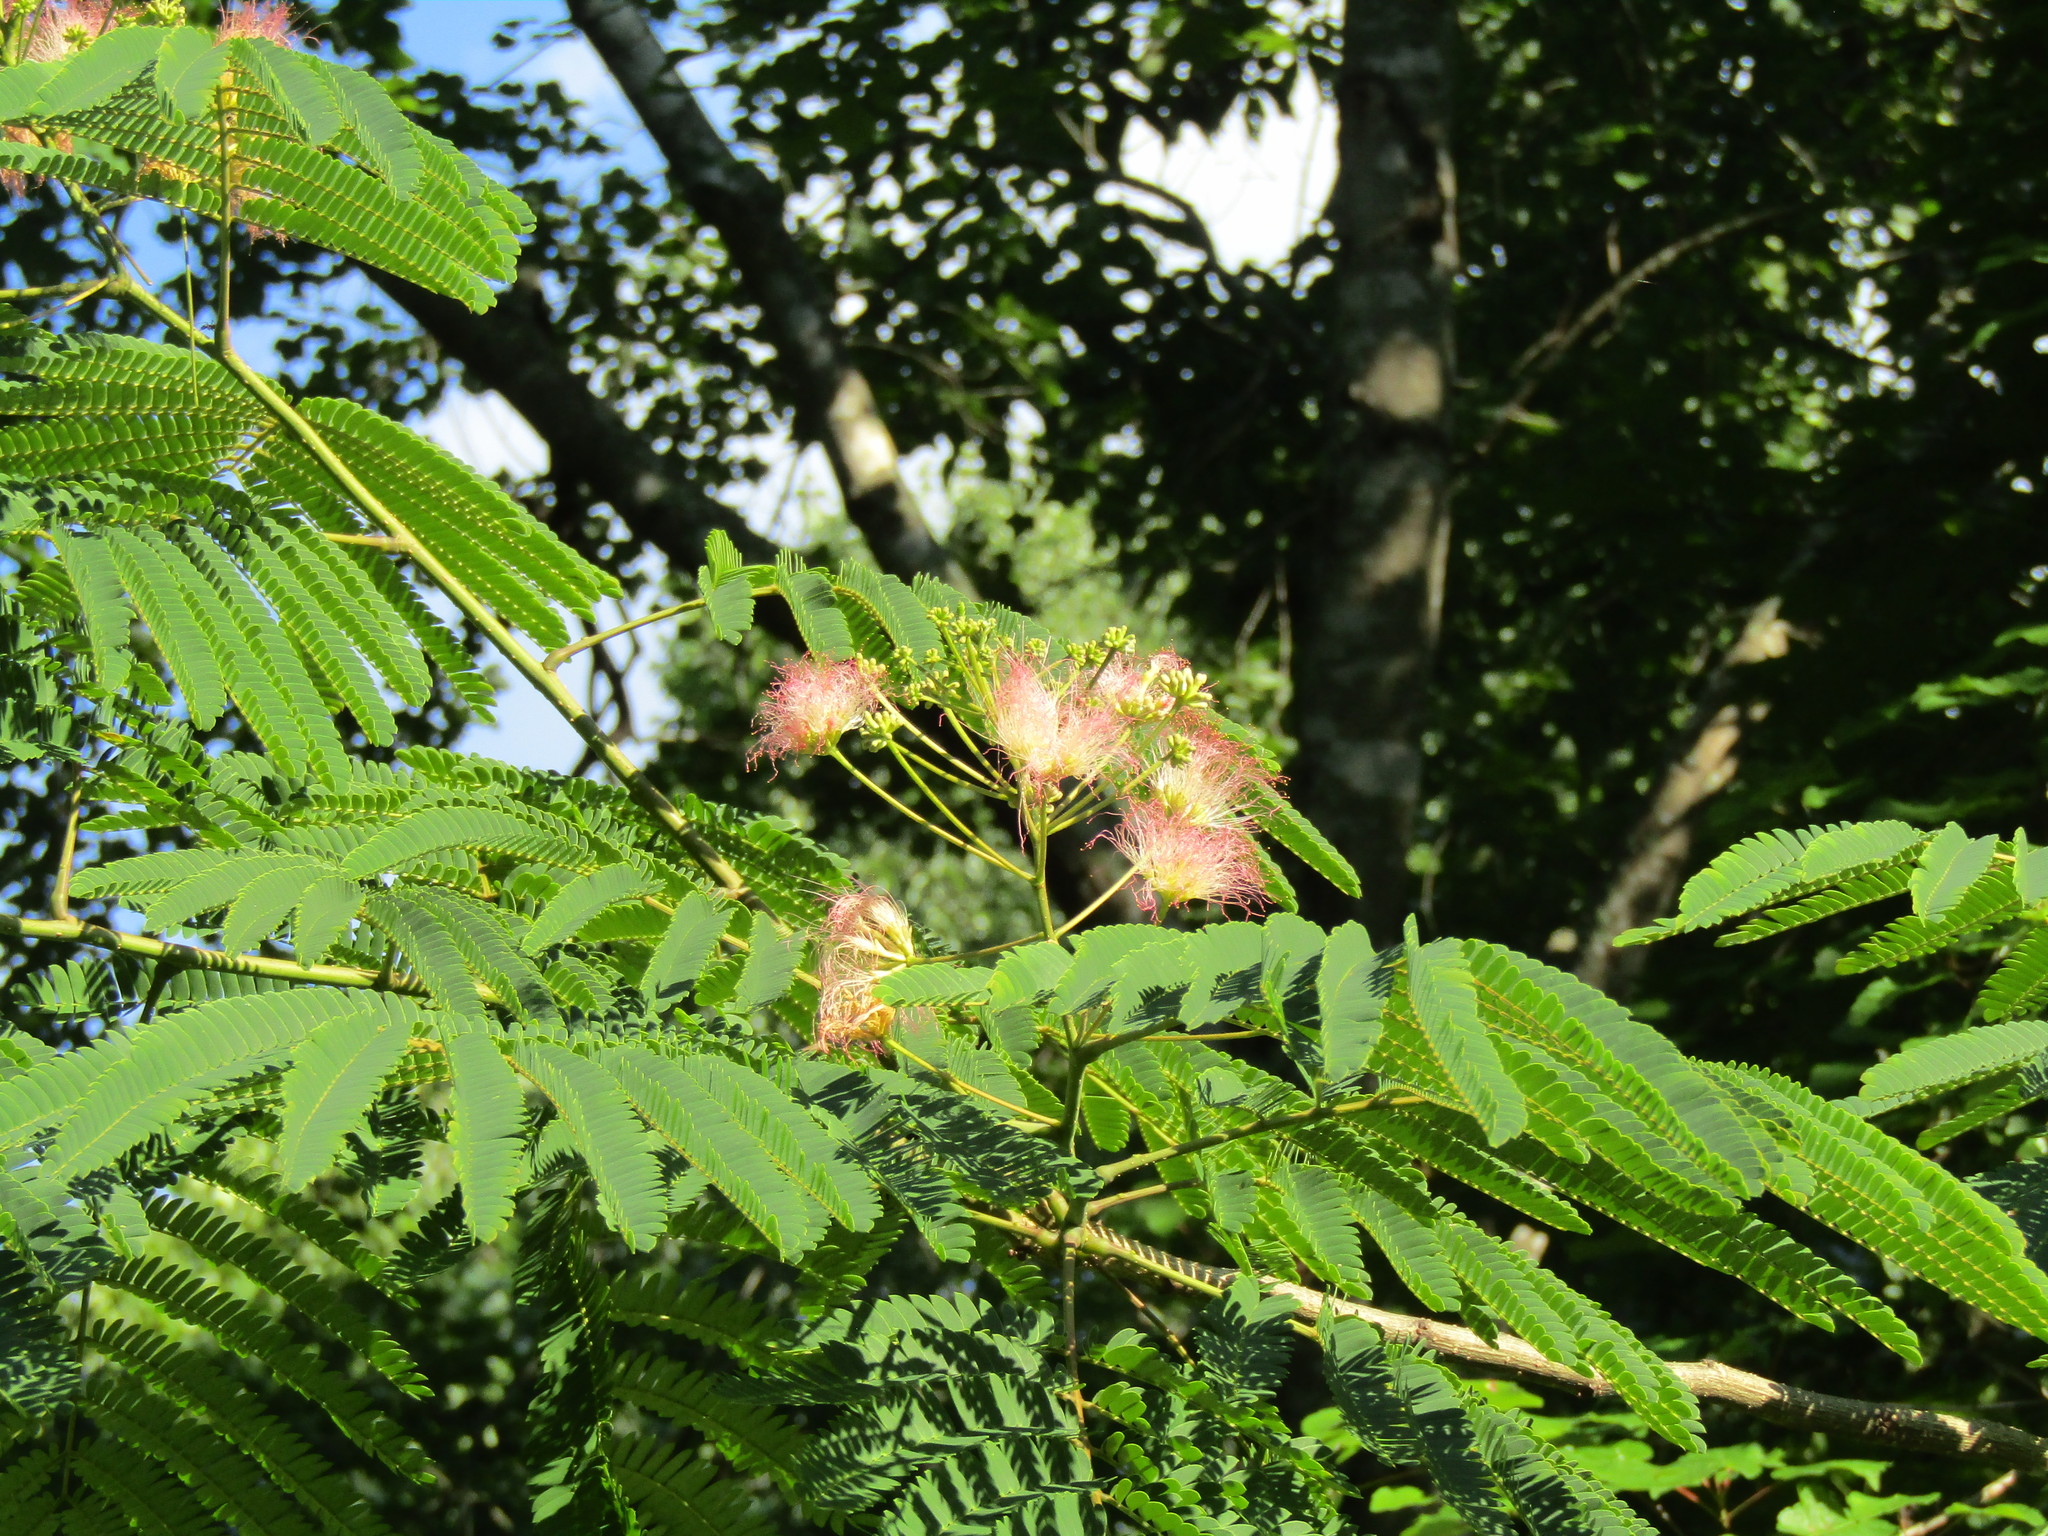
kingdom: Plantae
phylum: Tracheophyta
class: Magnoliopsida
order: Fabales
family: Fabaceae
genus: Albizia
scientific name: Albizia julibrissin
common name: Silktree
